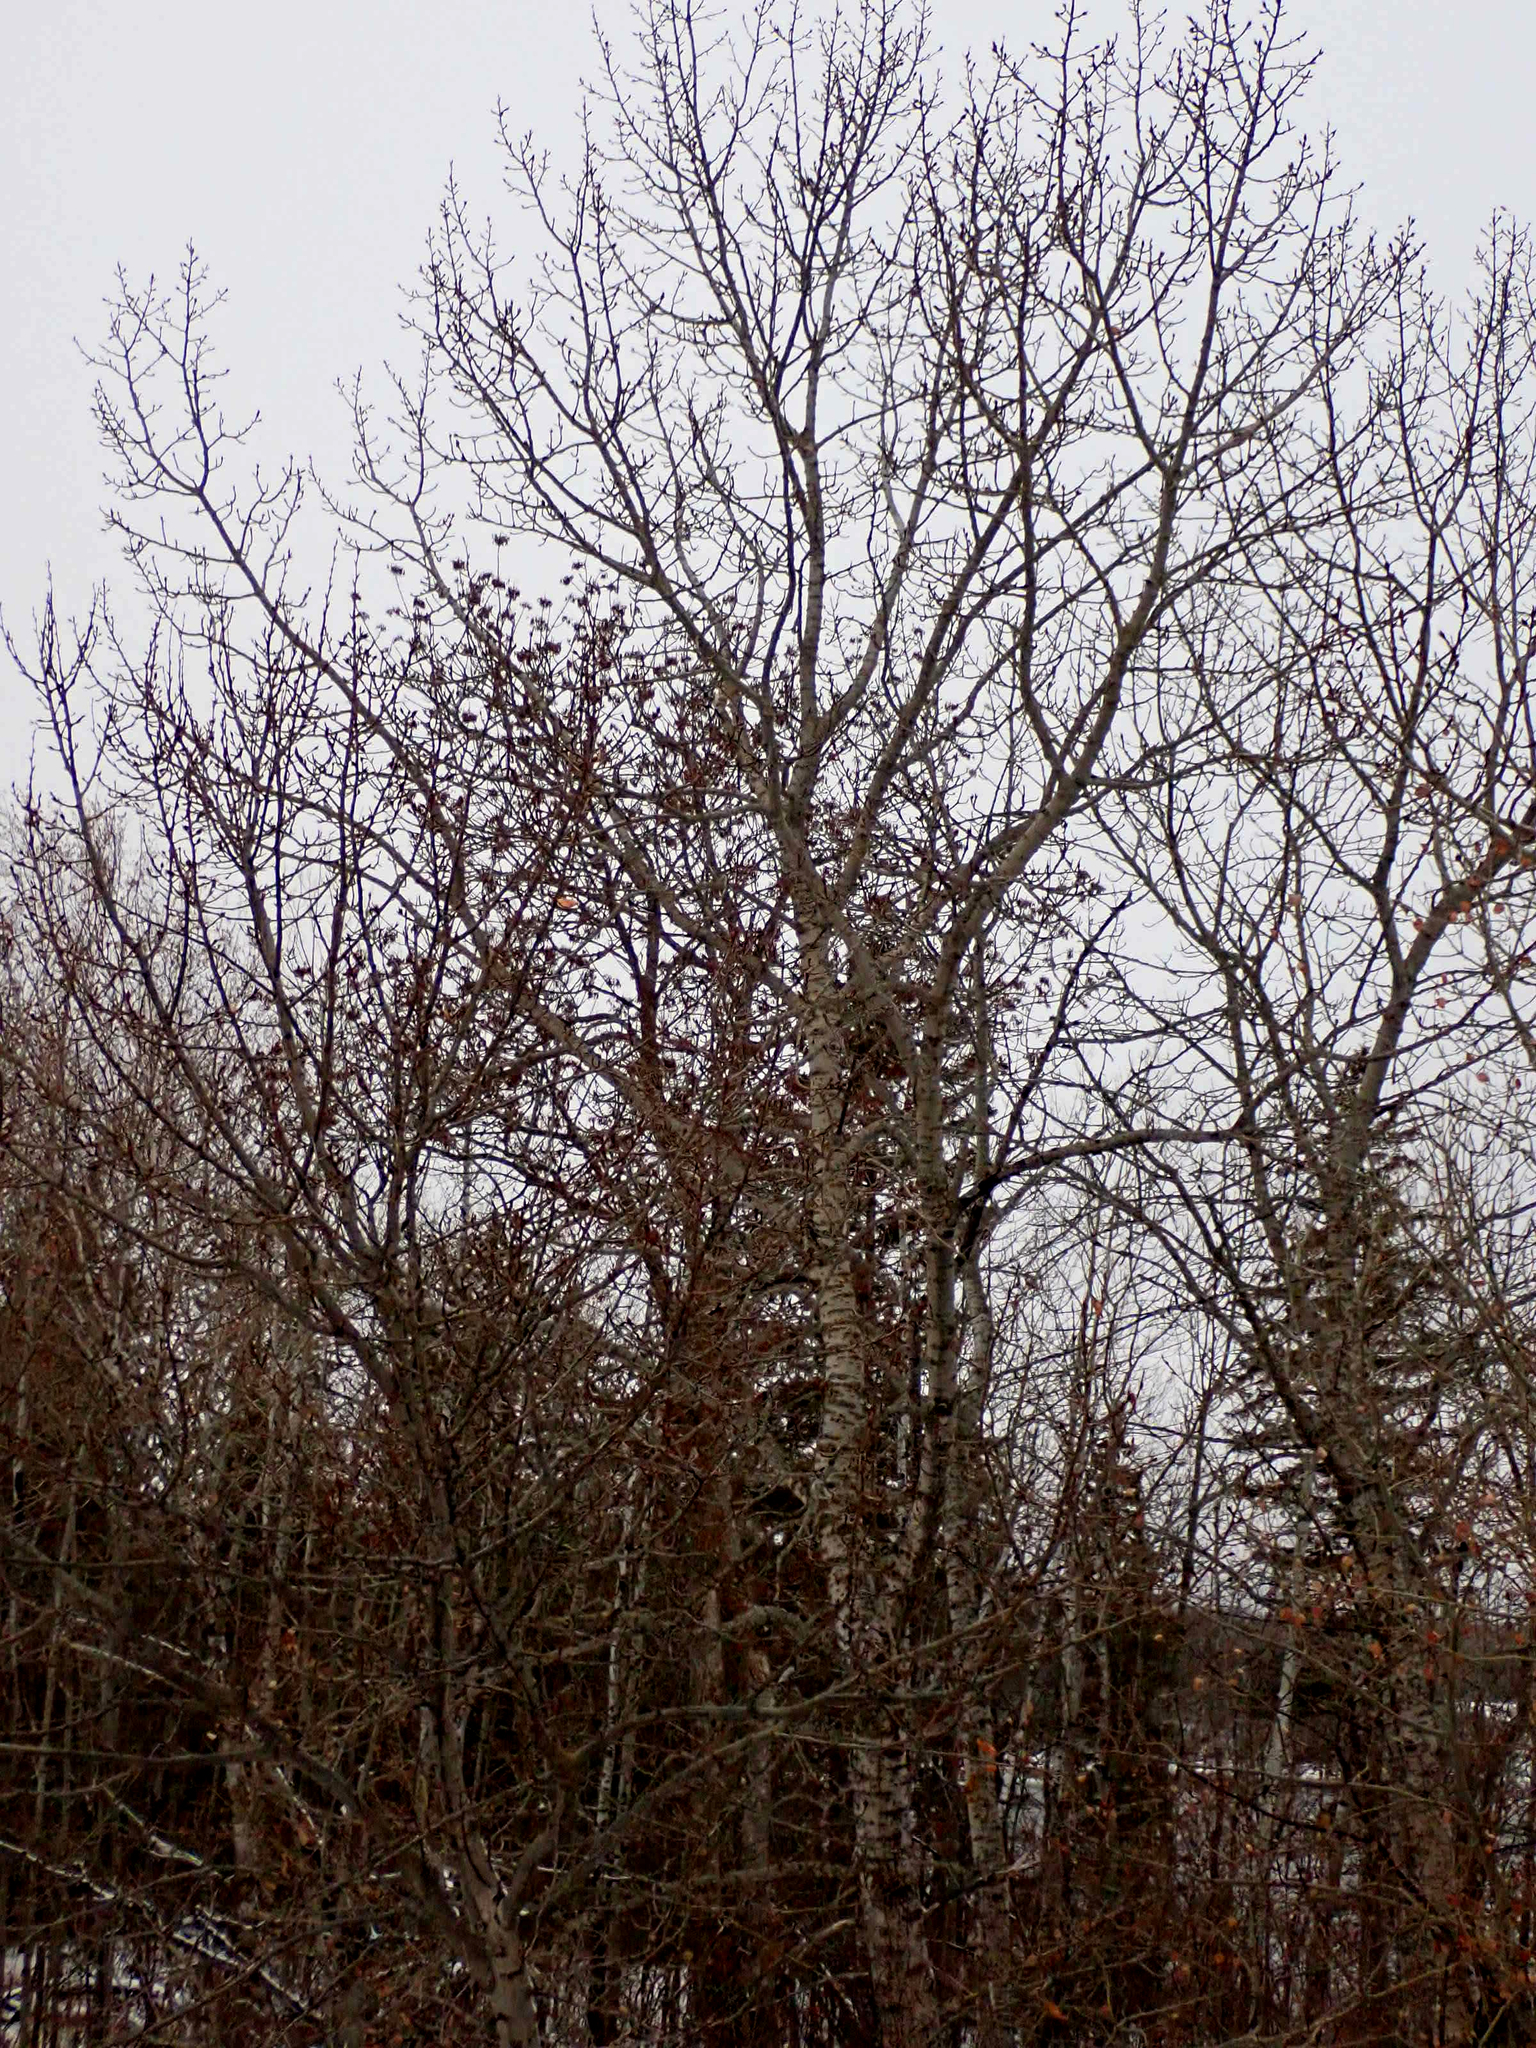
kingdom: Plantae
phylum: Tracheophyta
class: Magnoliopsida
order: Malpighiales
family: Salicaceae
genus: Populus
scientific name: Populus balsamifera
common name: Balsam poplar
